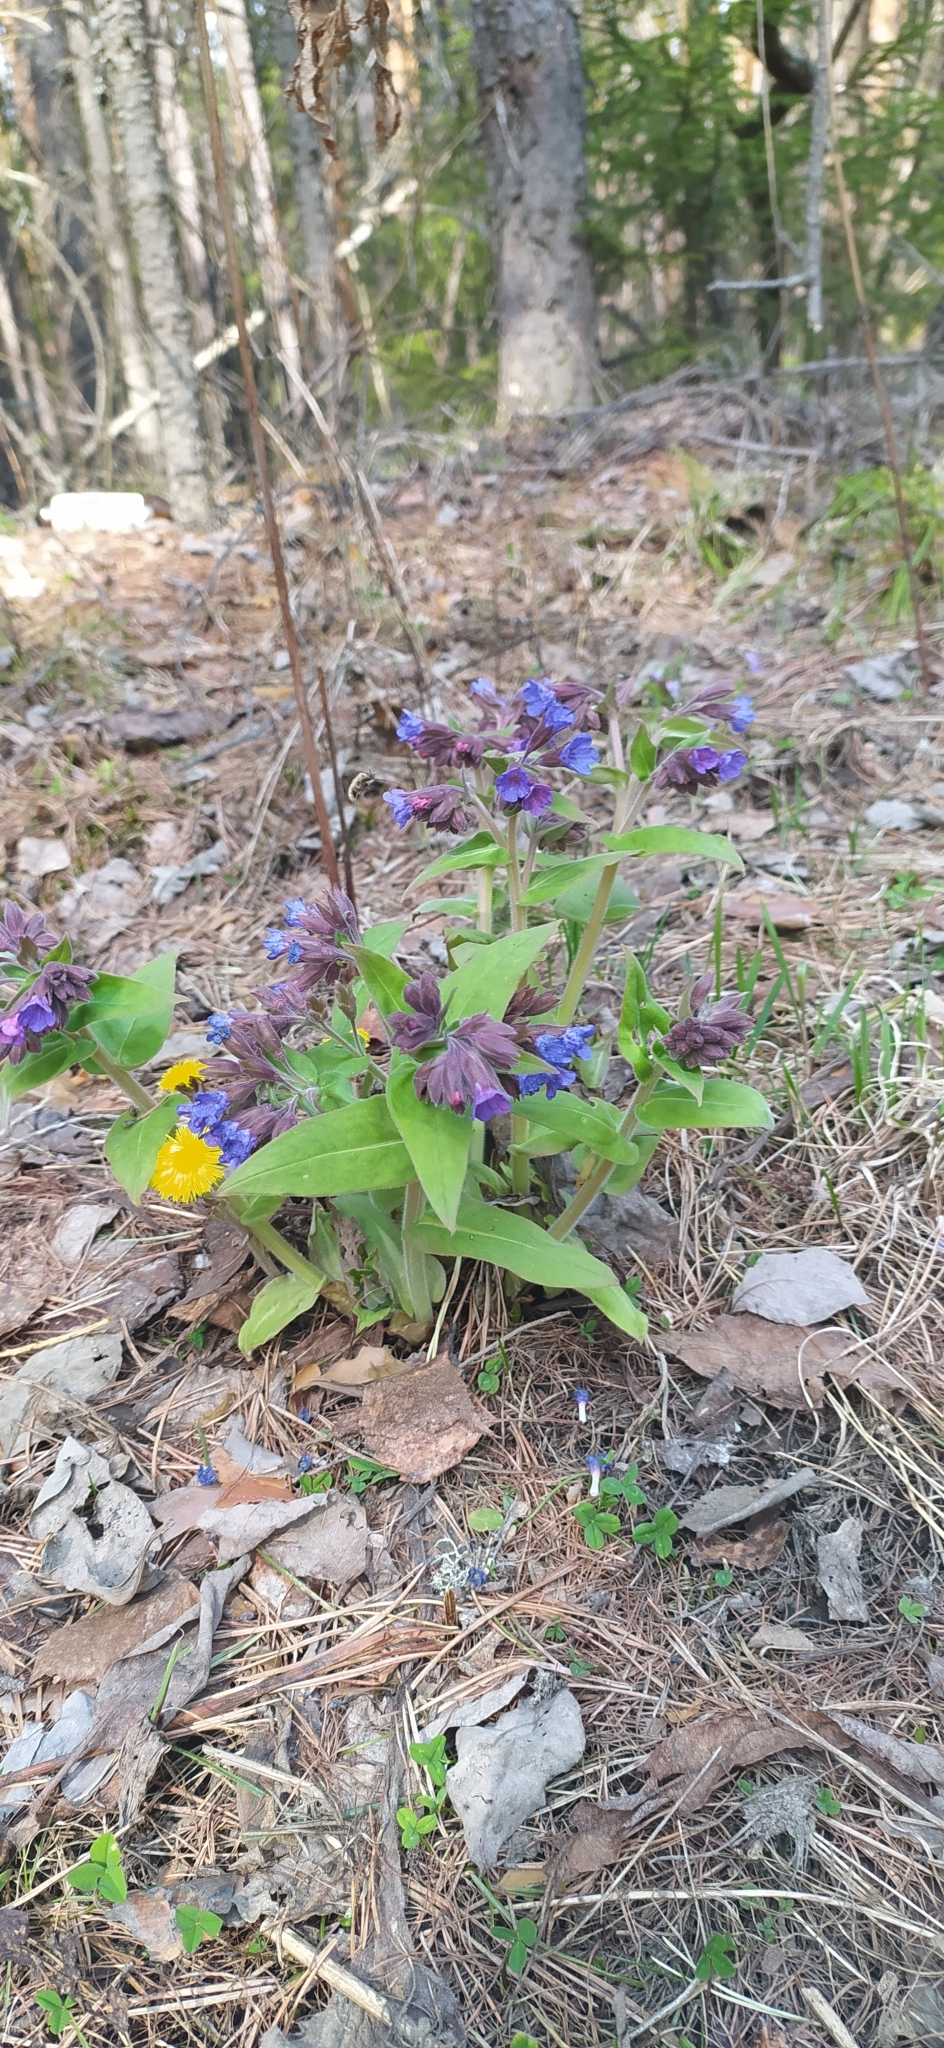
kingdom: Plantae
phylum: Tracheophyta
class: Magnoliopsida
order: Boraginales
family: Boraginaceae
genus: Pulmonaria
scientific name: Pulmonaria mollis
